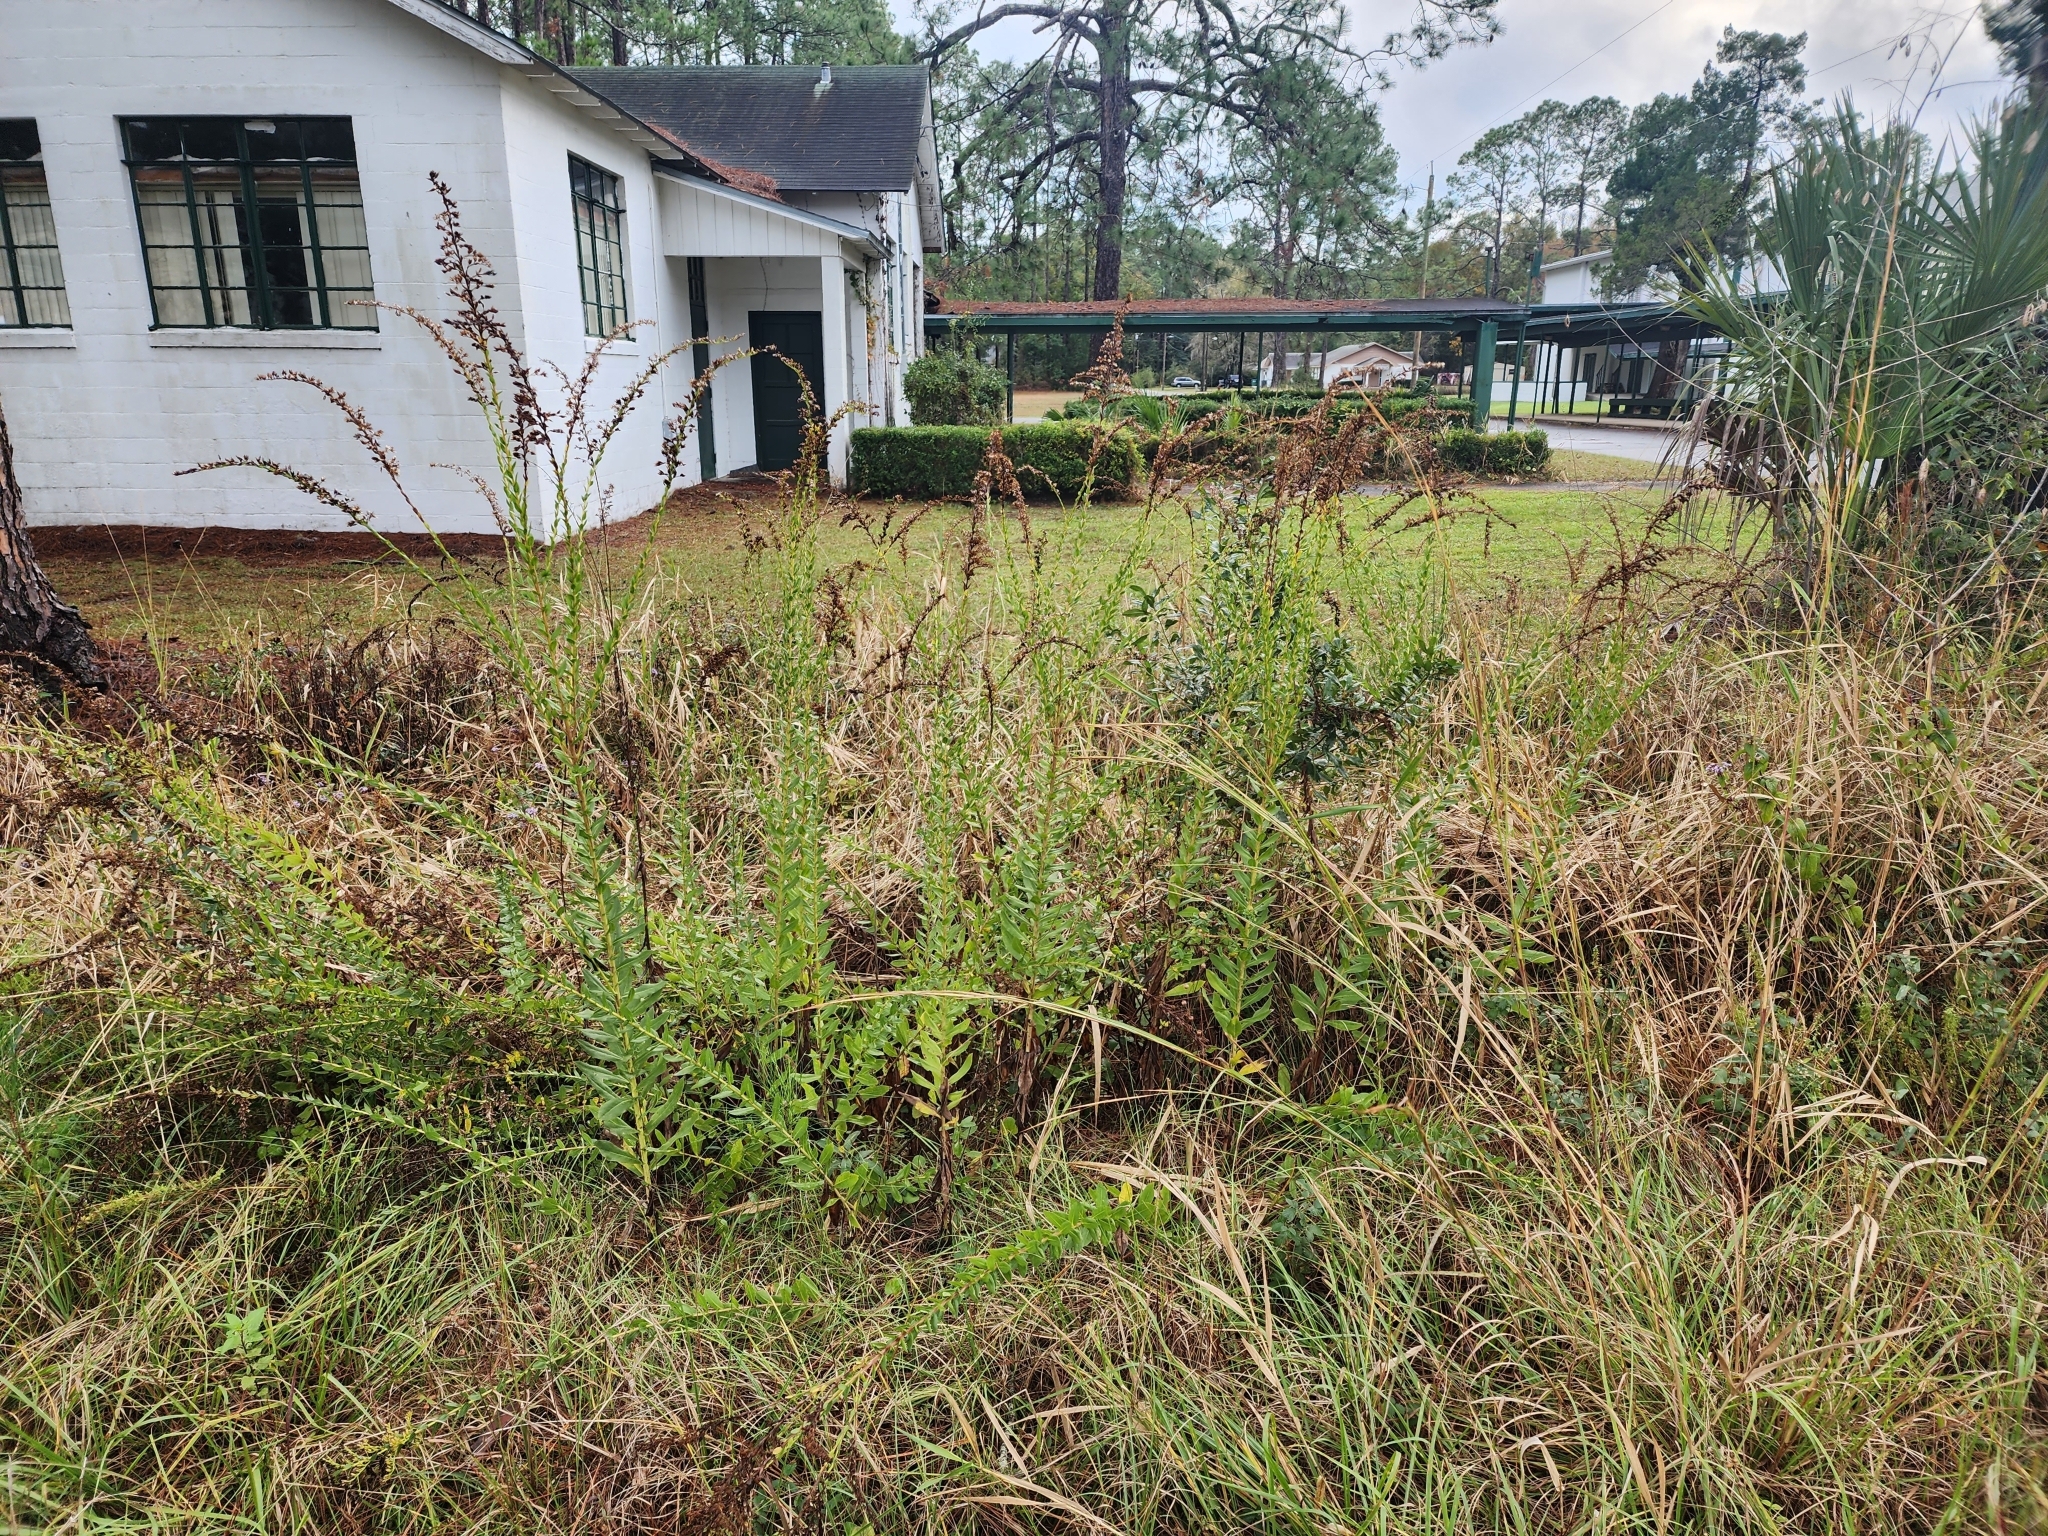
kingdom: Plantae
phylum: Tracheophyta
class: Magnoliopsida
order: Asterales
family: Asteraceae
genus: Solidago
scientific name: Solidago fistulosa
